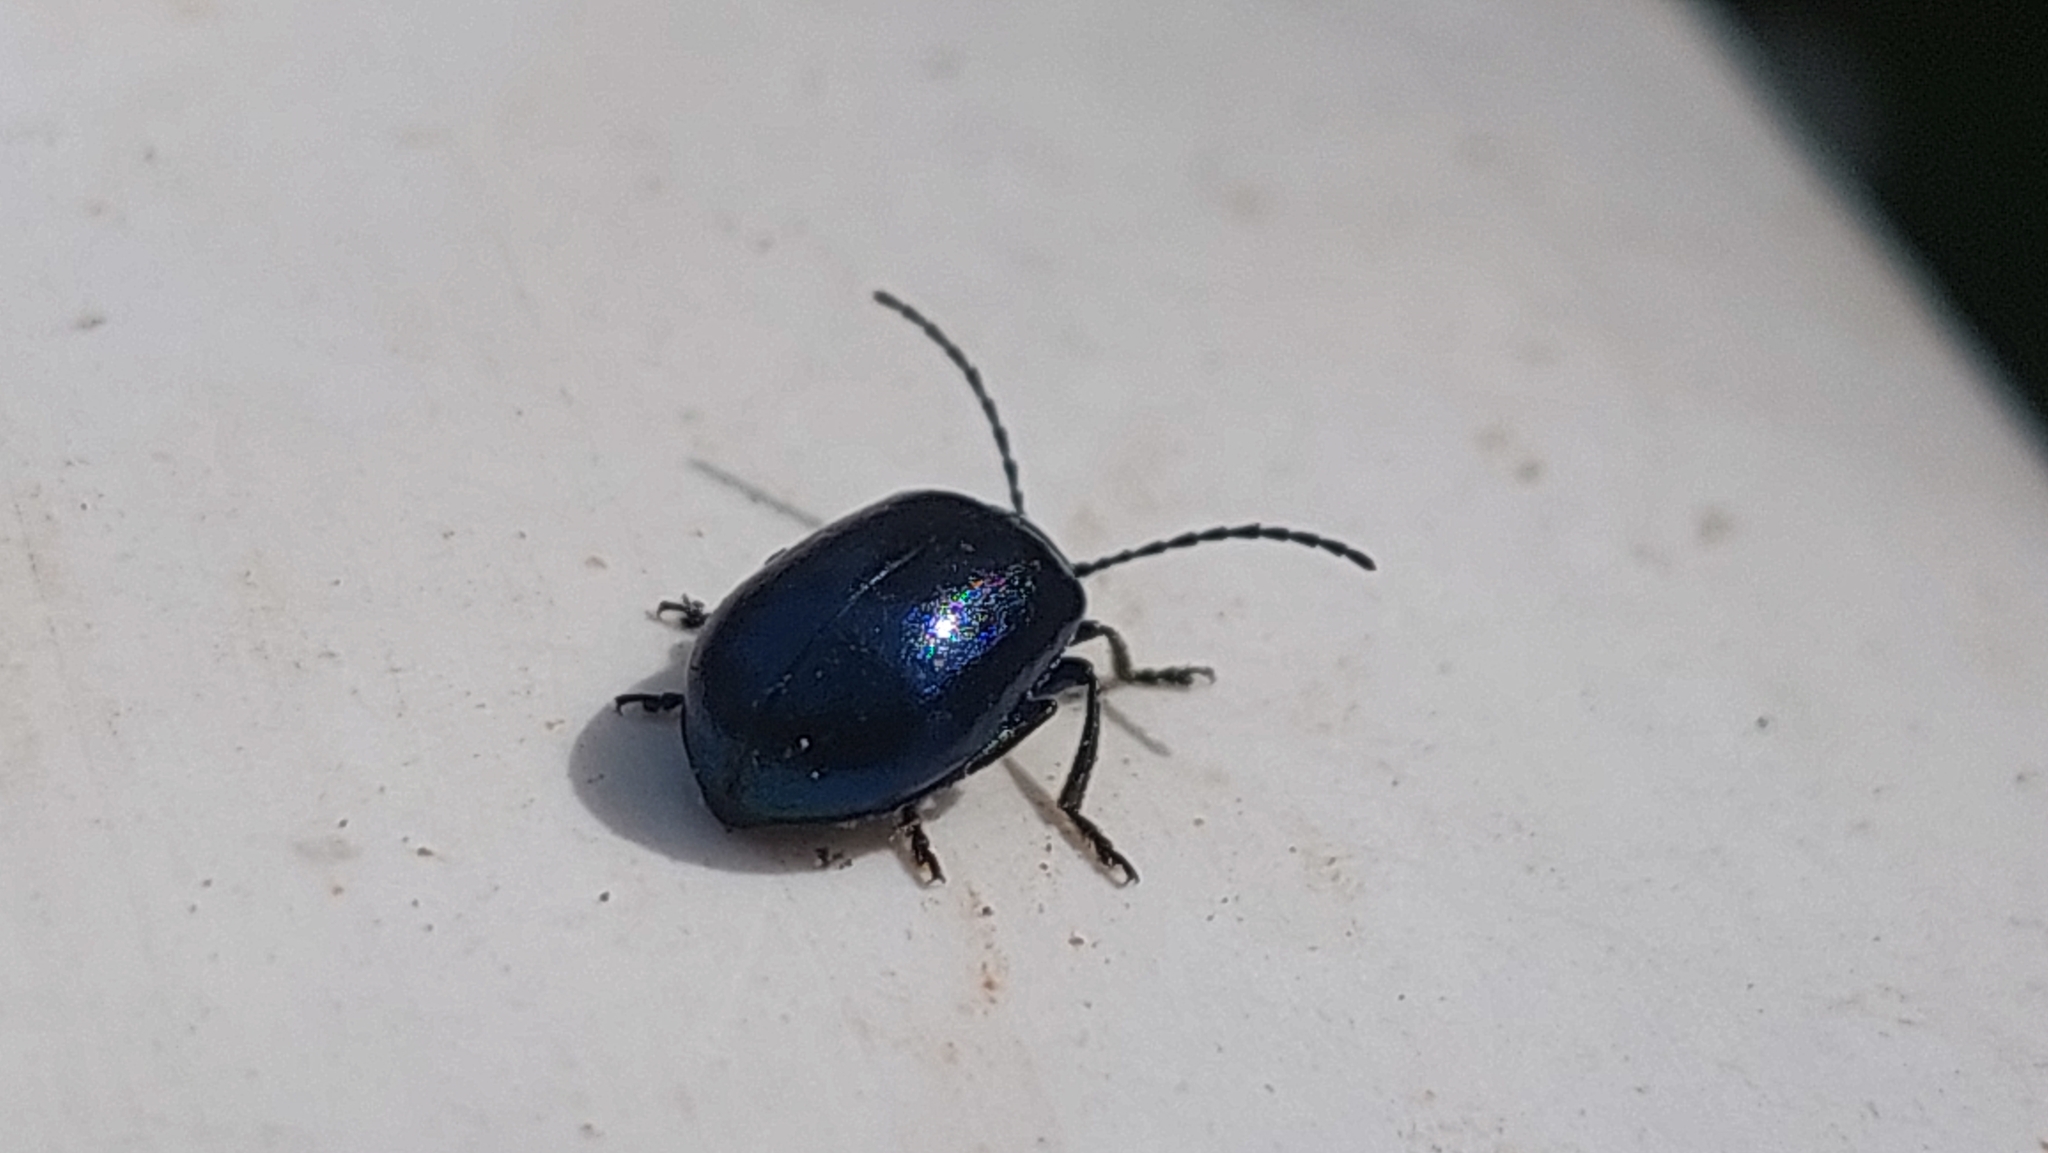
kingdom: Animalia
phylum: Arthropoda
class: Insecta
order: Coleoptera
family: Chrysomelidae
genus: Agelastica
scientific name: Agelastica alni
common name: Alder leaf beetle
